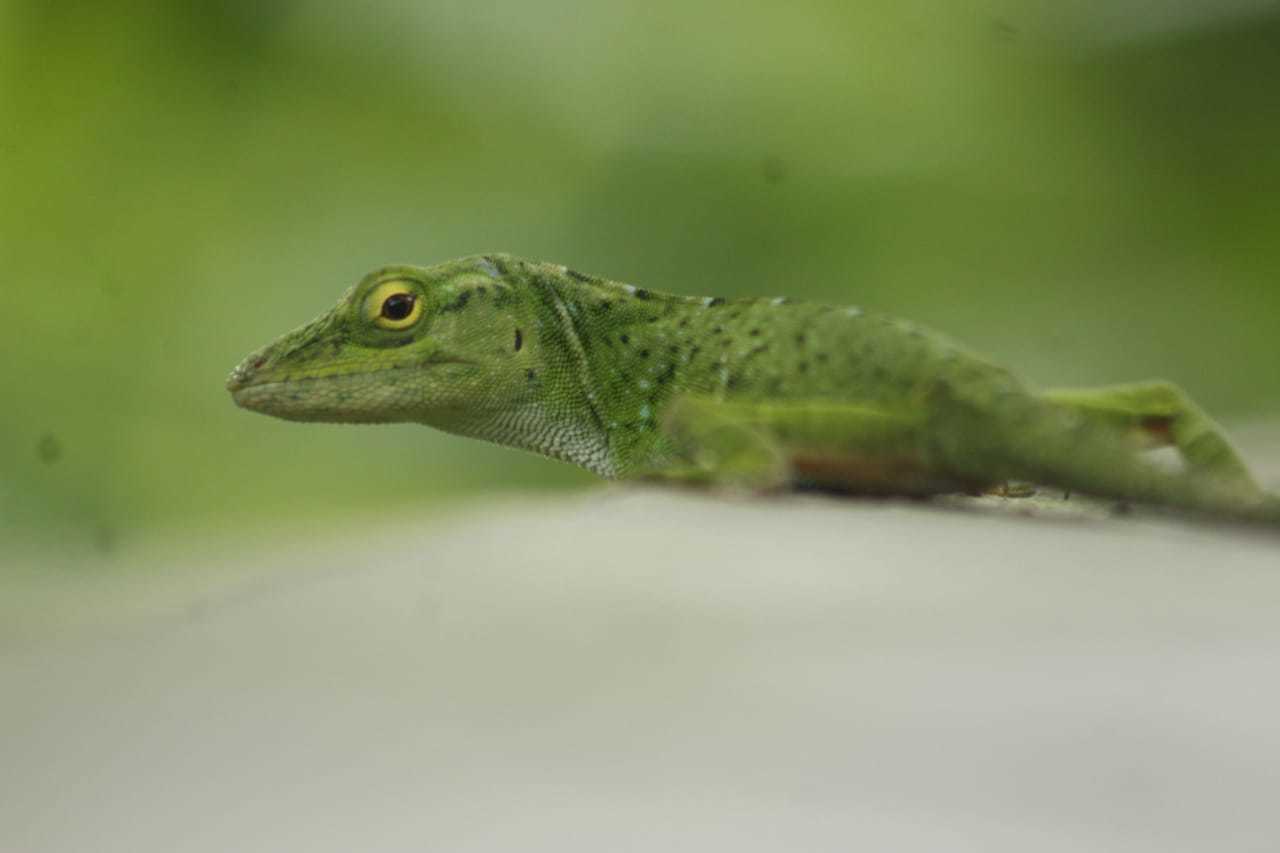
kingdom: Animalia
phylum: Chordata
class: Squamata
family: Dactyloidae
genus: Anolis
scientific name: Anolis biporcatus
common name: Giant green anole
